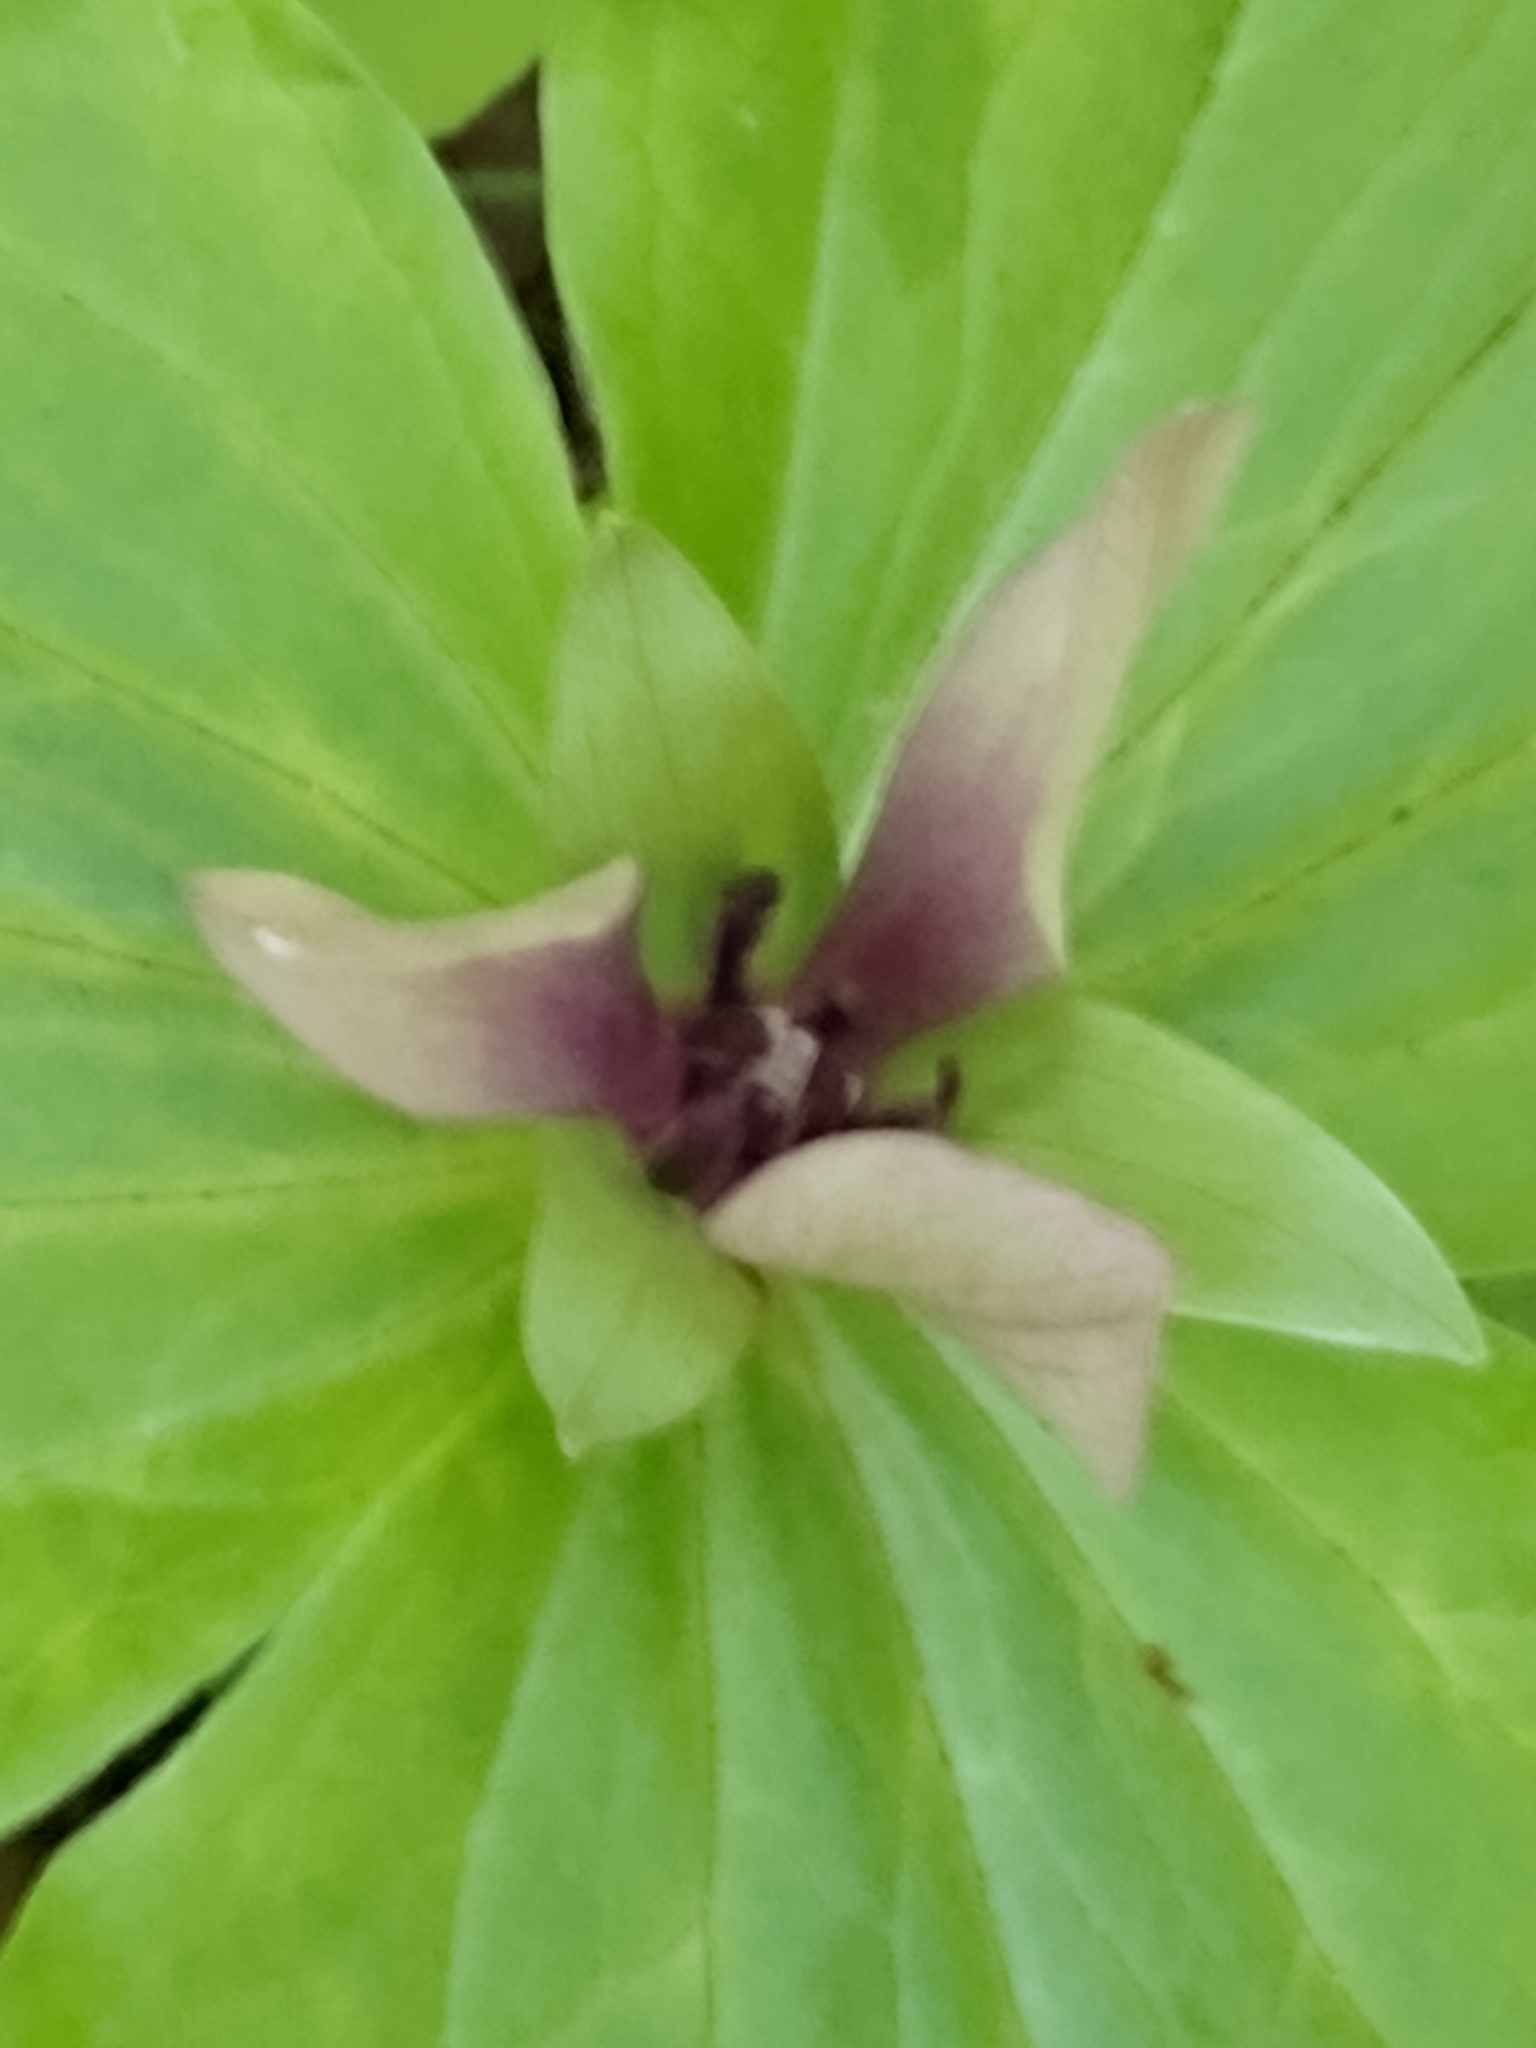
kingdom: Plantae
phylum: Tracheophyta
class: Liliopsida
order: Liliales
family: Melanthiaceae
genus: Trillium
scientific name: Trillium chloropetalum
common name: Giant trillium
